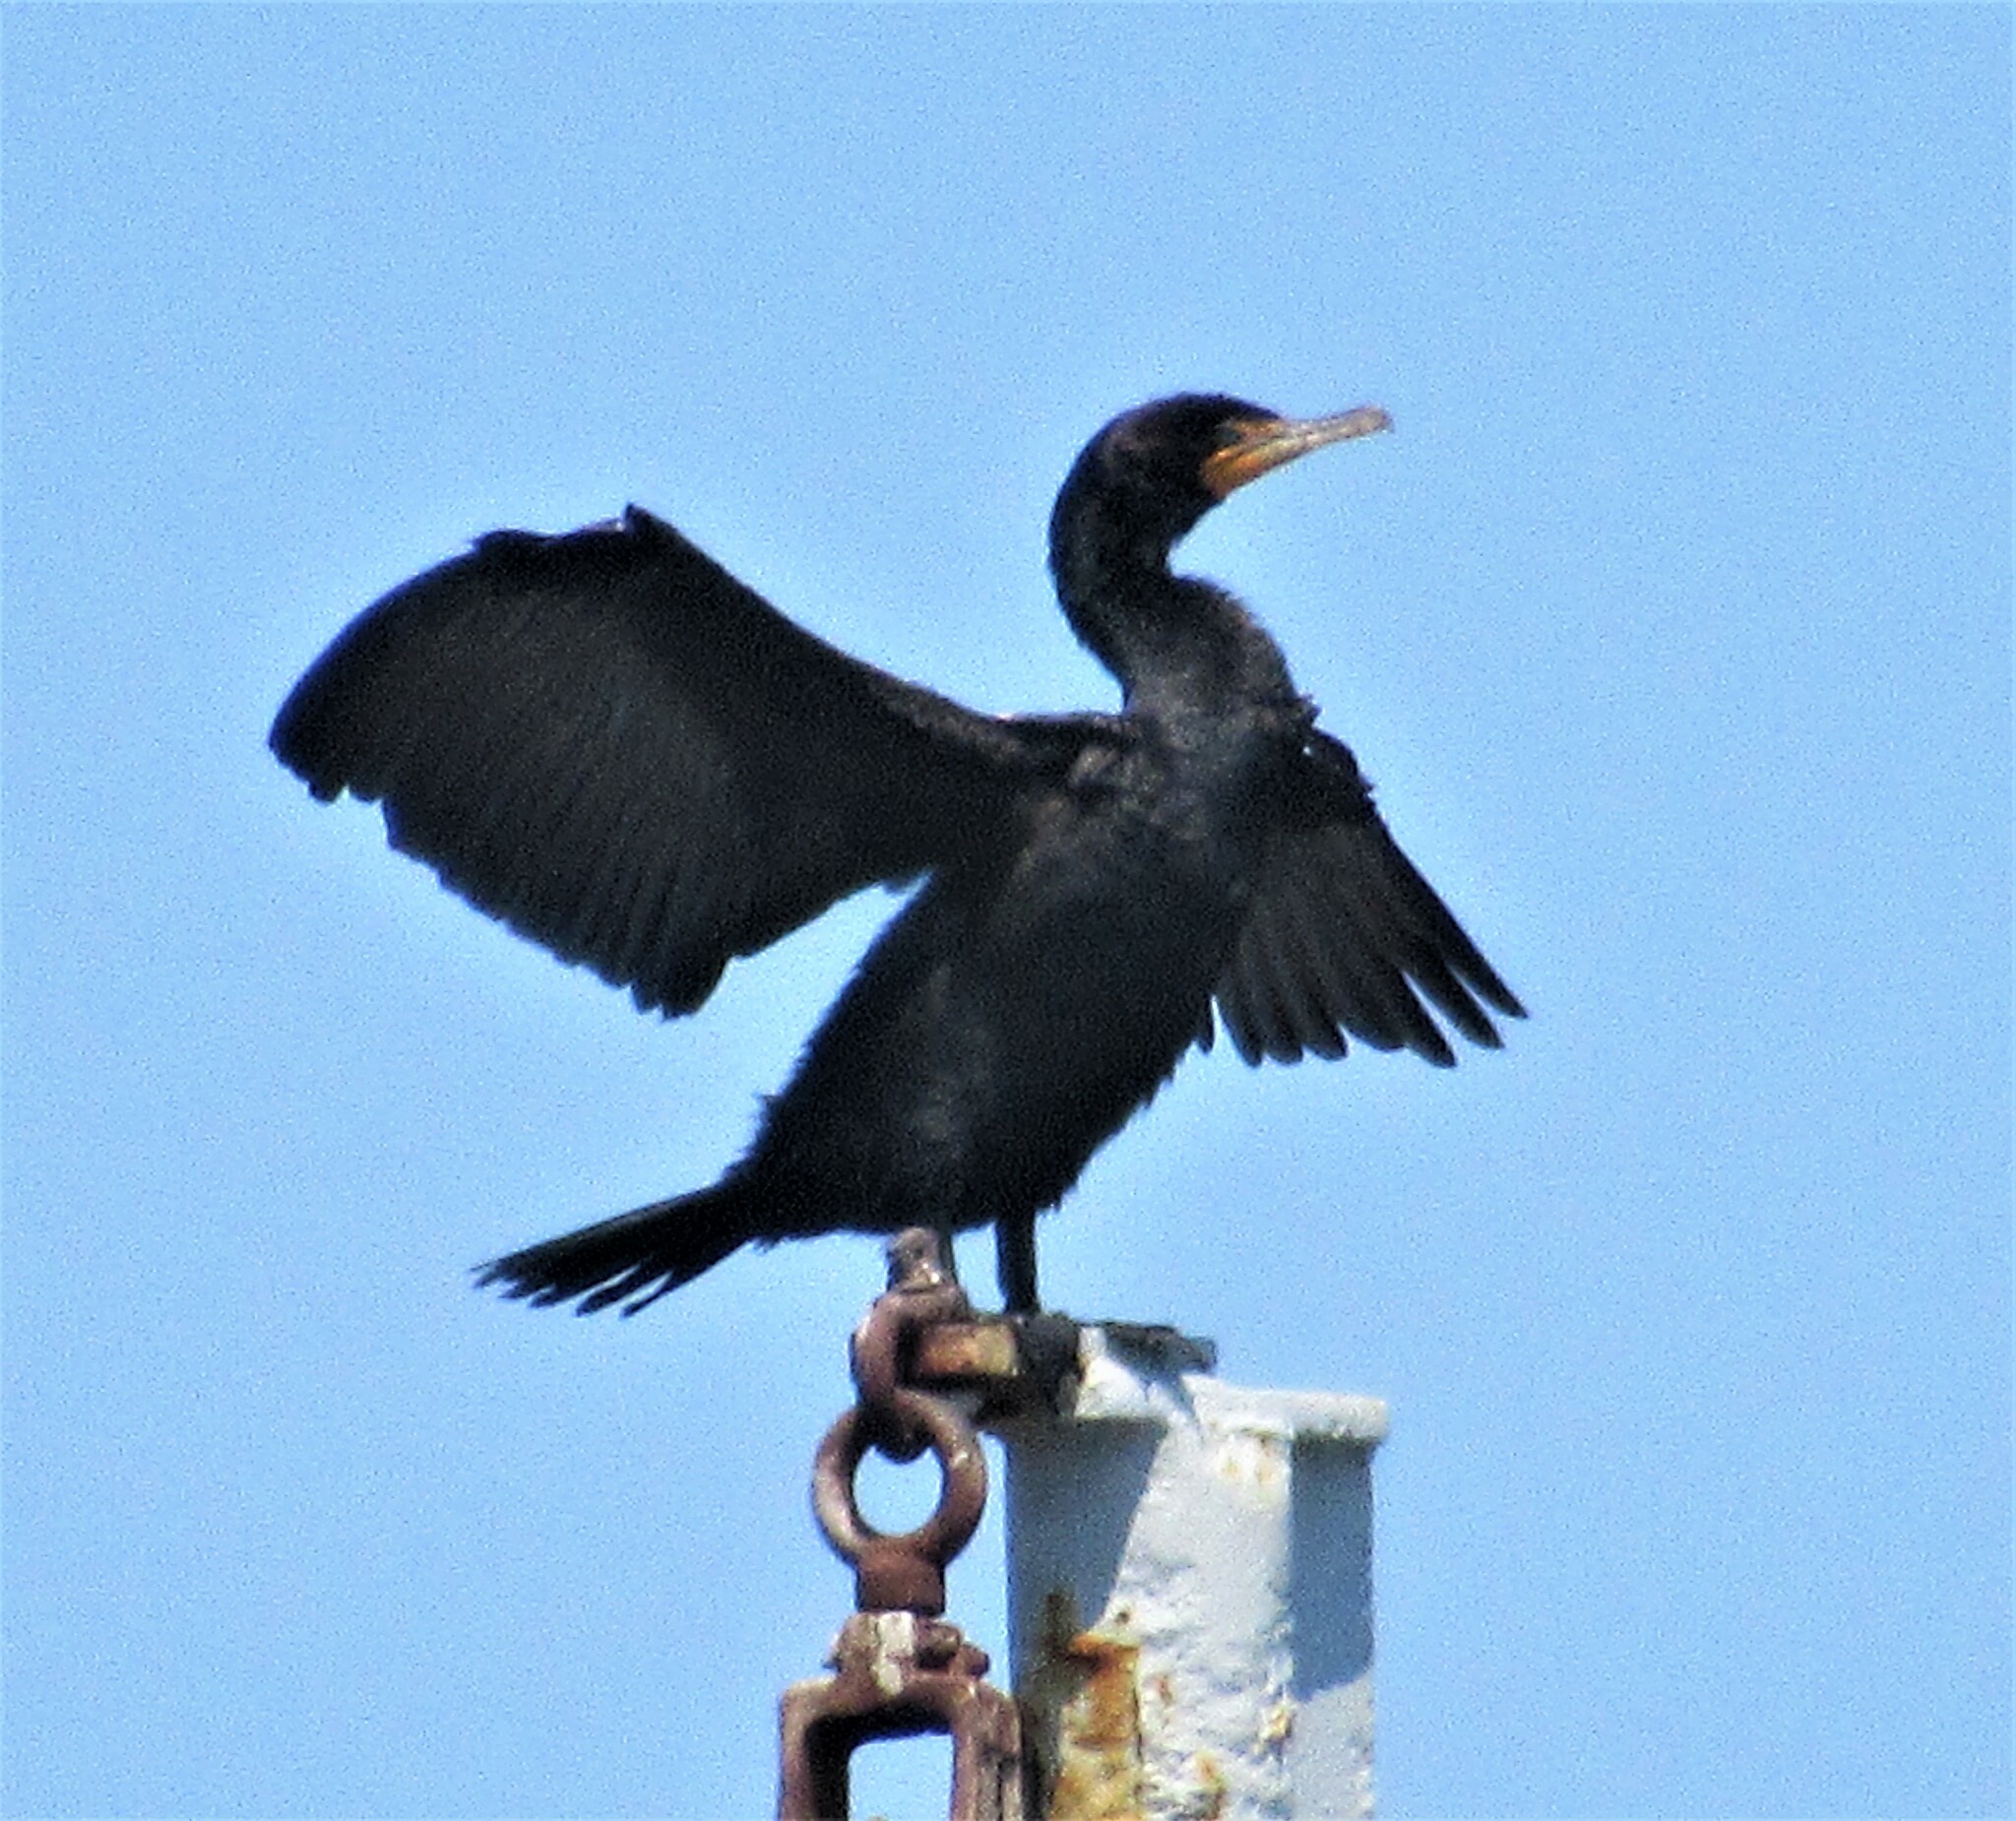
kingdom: Animalia
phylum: Chordata
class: Aves
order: Suliformes
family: Phalacrocoracidae
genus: Phalacrocorax
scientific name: Phalacrocorax auritus
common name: Double-crested cormorant
